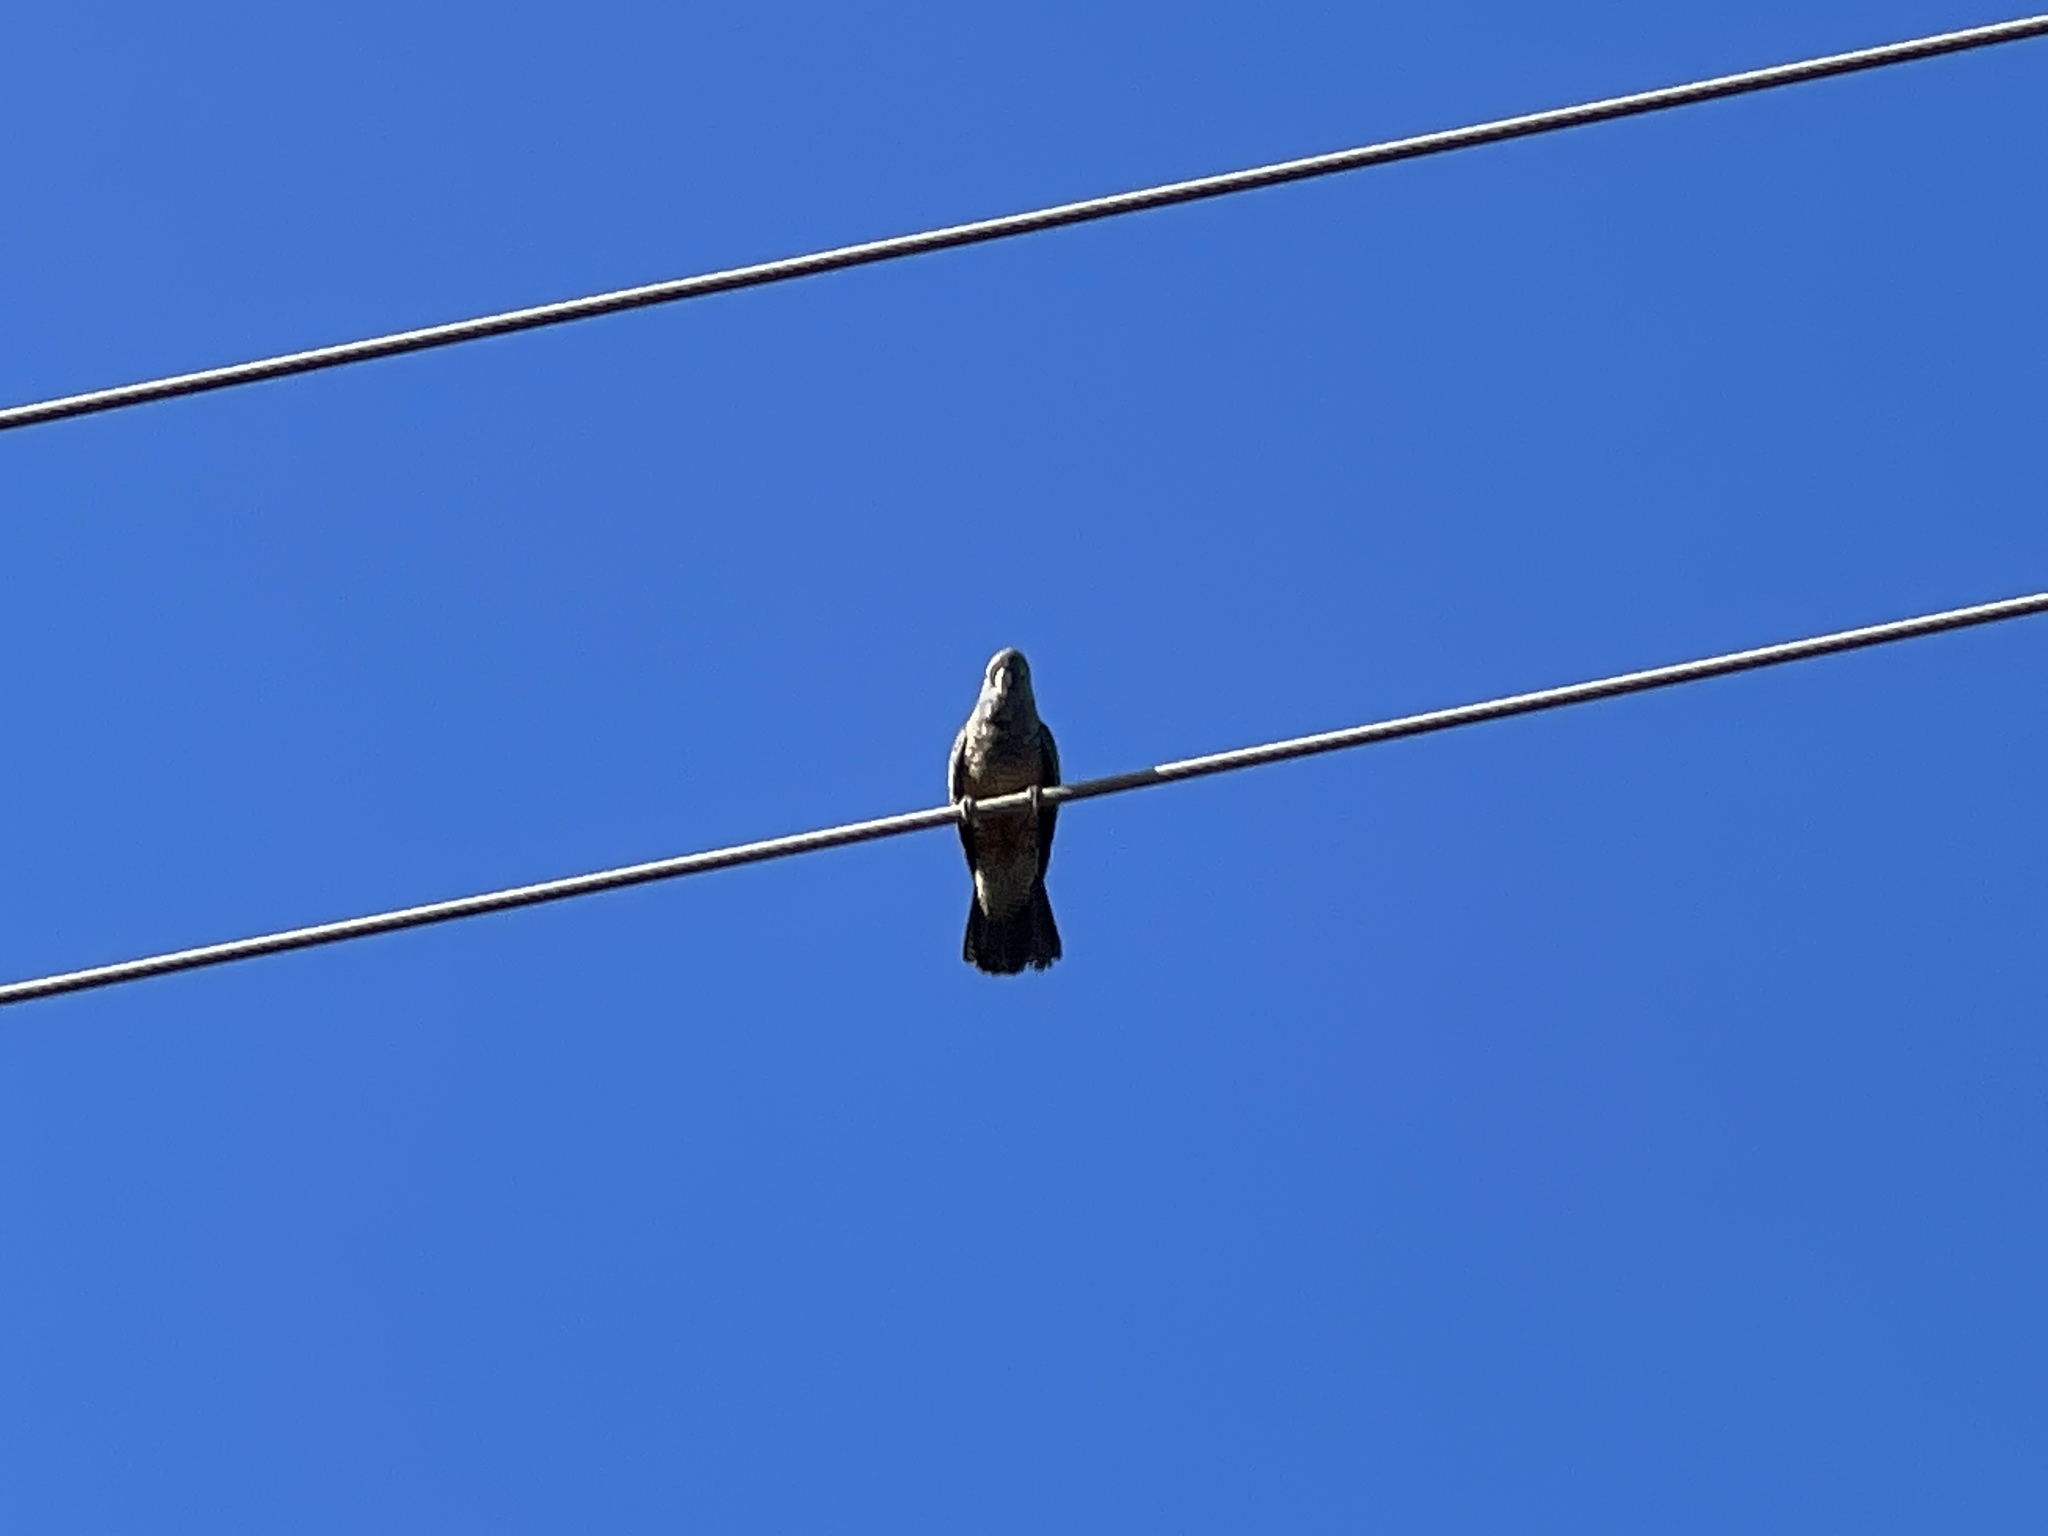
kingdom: Animalia
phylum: Chordata
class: Aves
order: Psittaciformes
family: Psittacidae
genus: Callocephalon
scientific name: Callocephalon fimbriatum
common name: Gang-gang cockatoo
